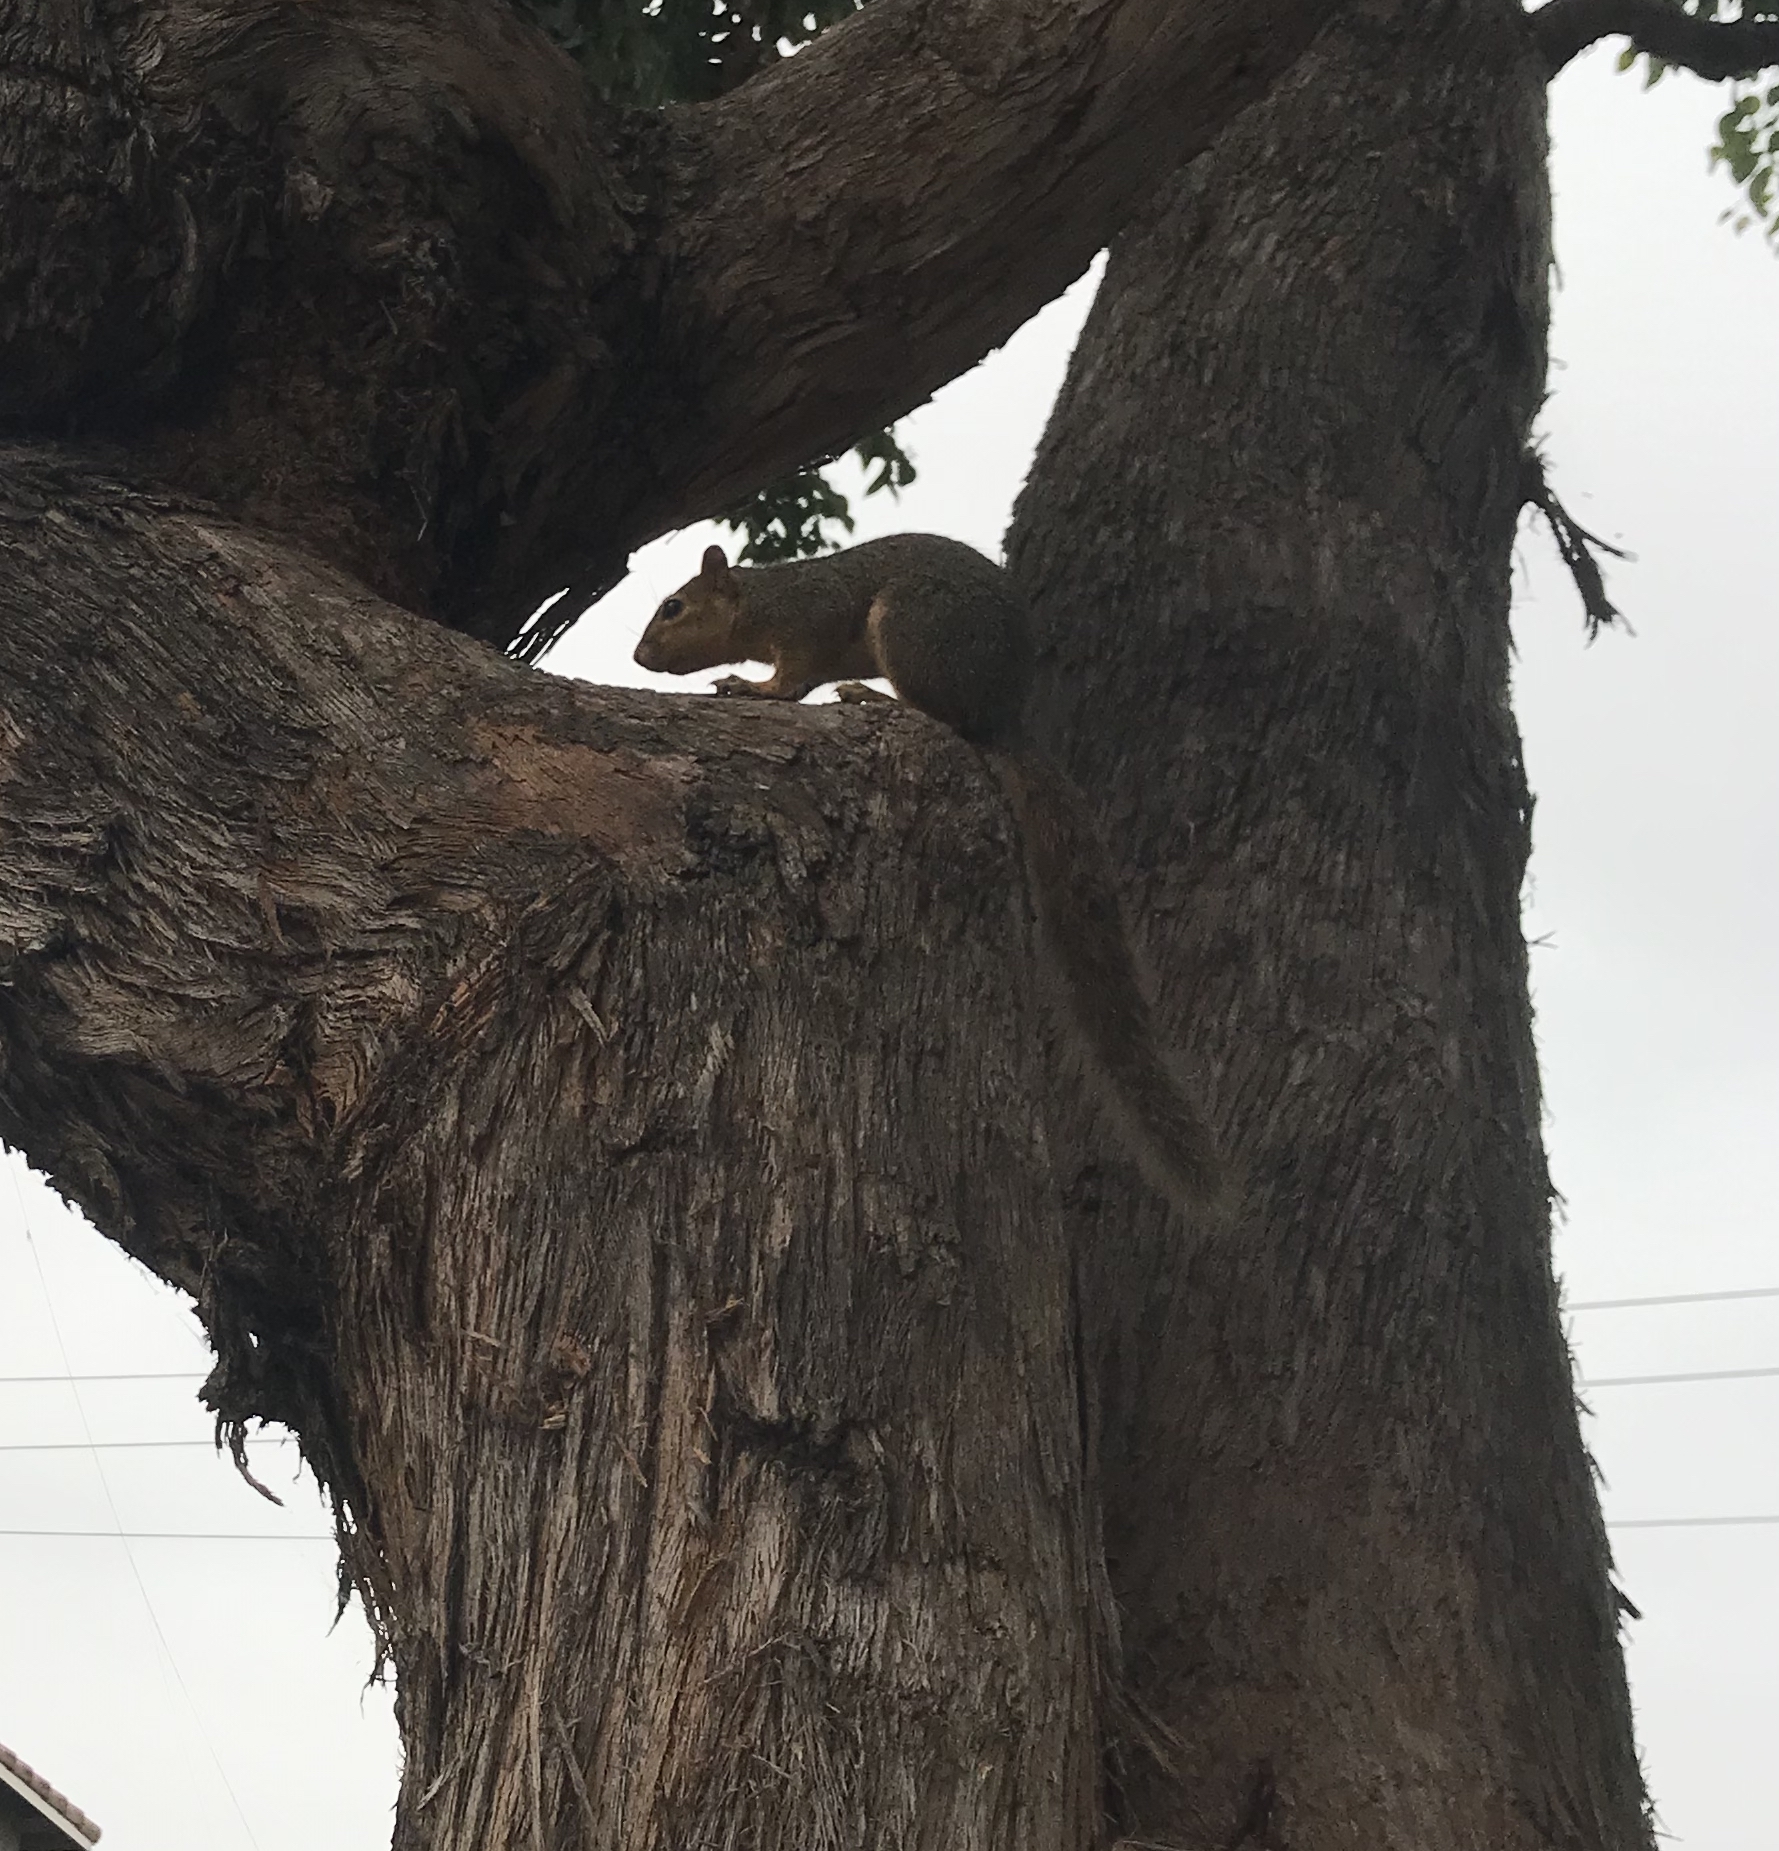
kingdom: Animalia
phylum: Chordata
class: Mammalia
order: Rodentia
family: Sciuridae
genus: Sciurus
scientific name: Sciurus niger
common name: Fox squirrel
